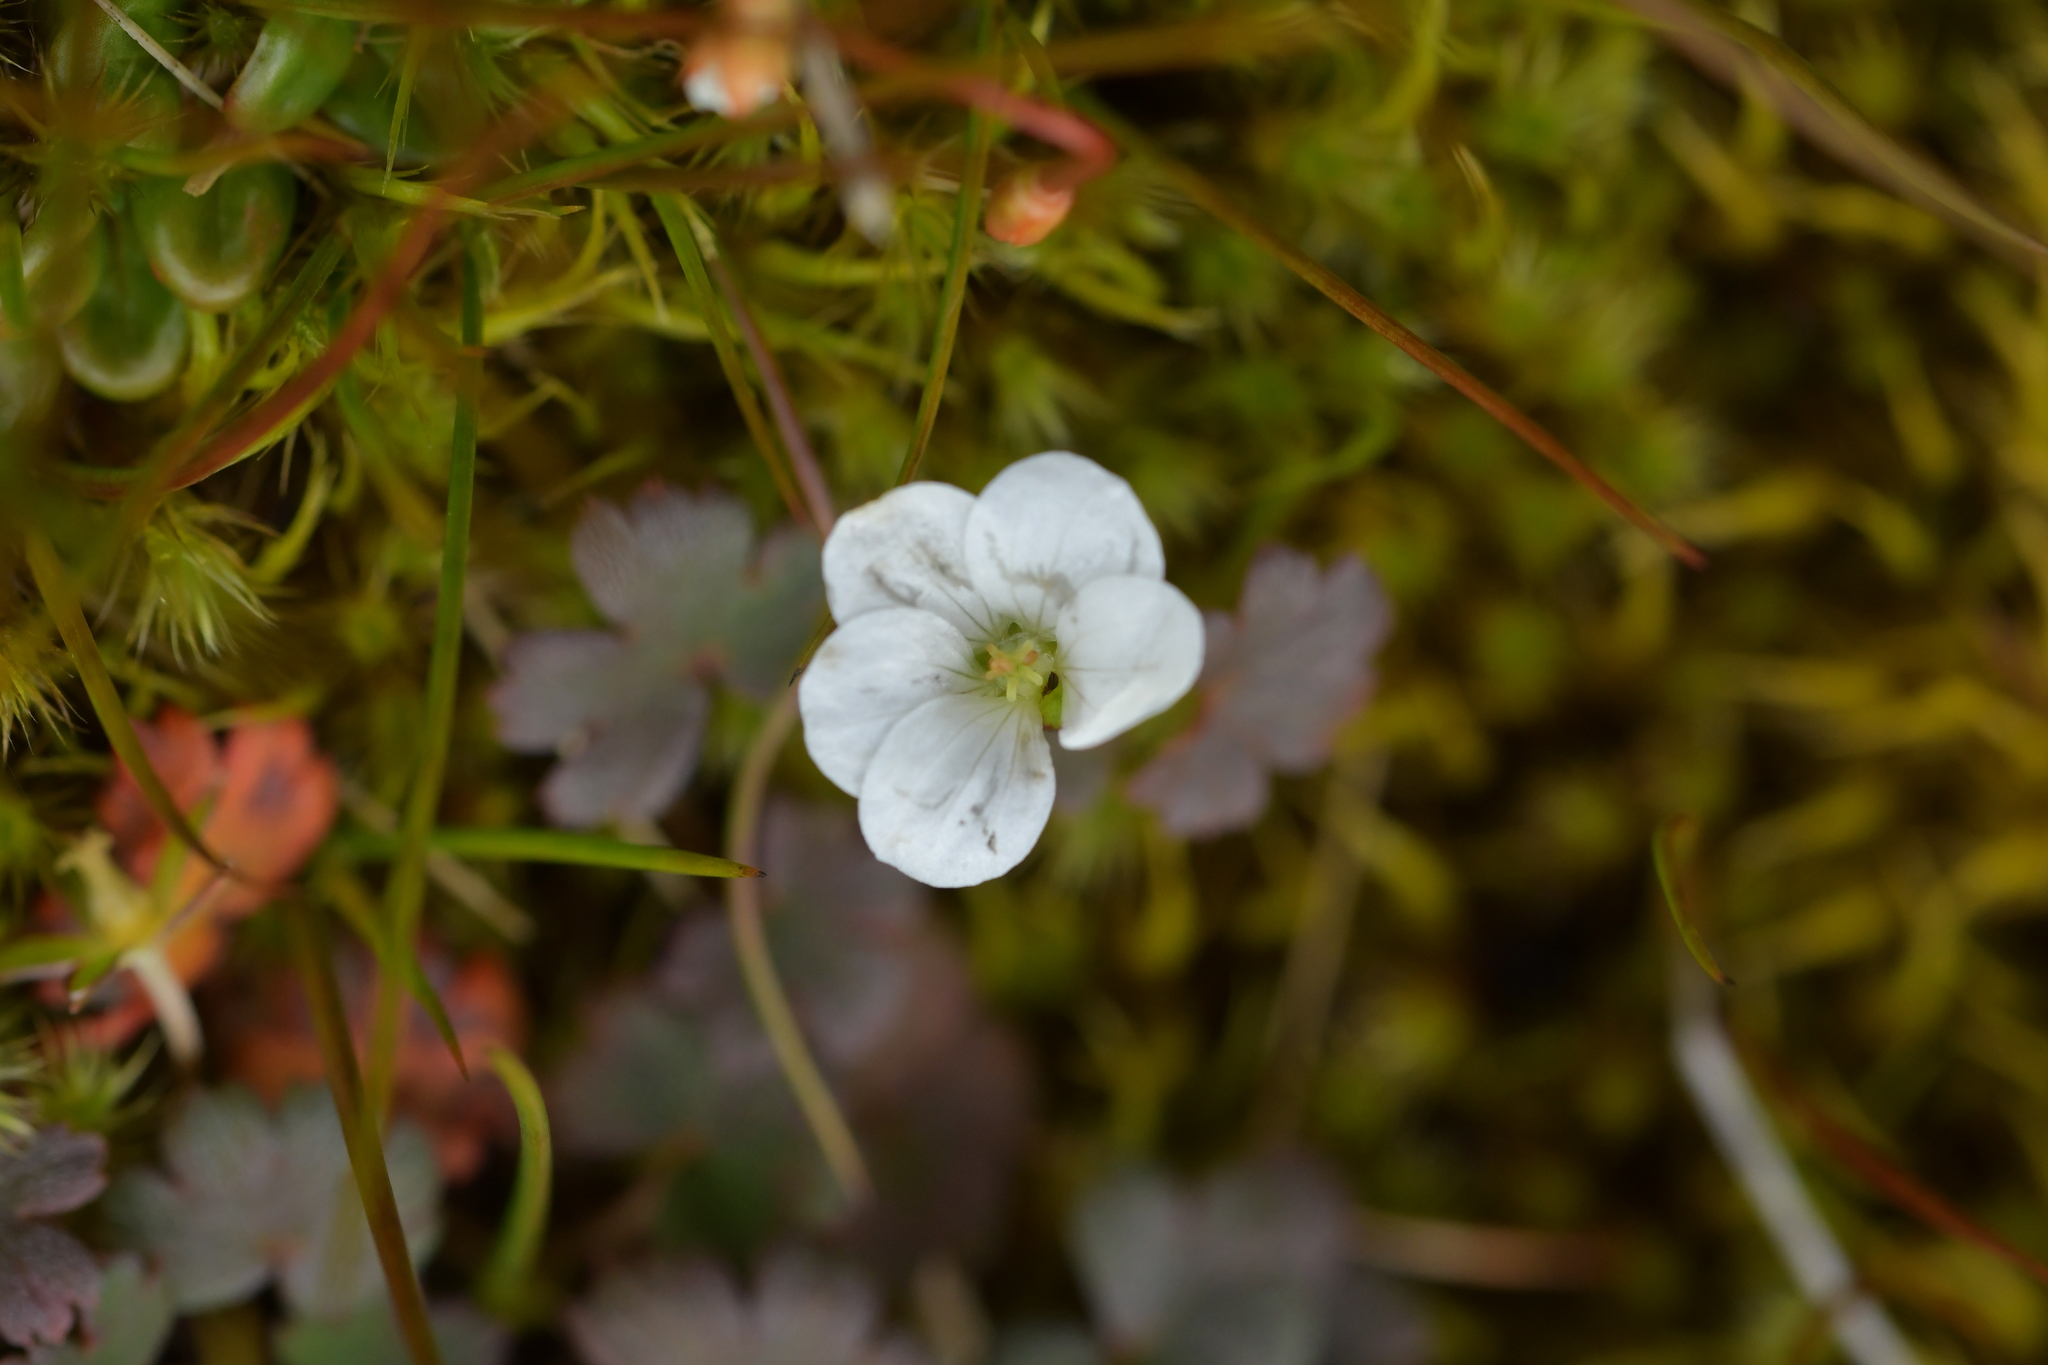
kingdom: Plantae
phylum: Tracheophyta
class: Magnoliopsida
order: Geraniales
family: Geraniaceae
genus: Geranium
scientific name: Geranium brevicaule
